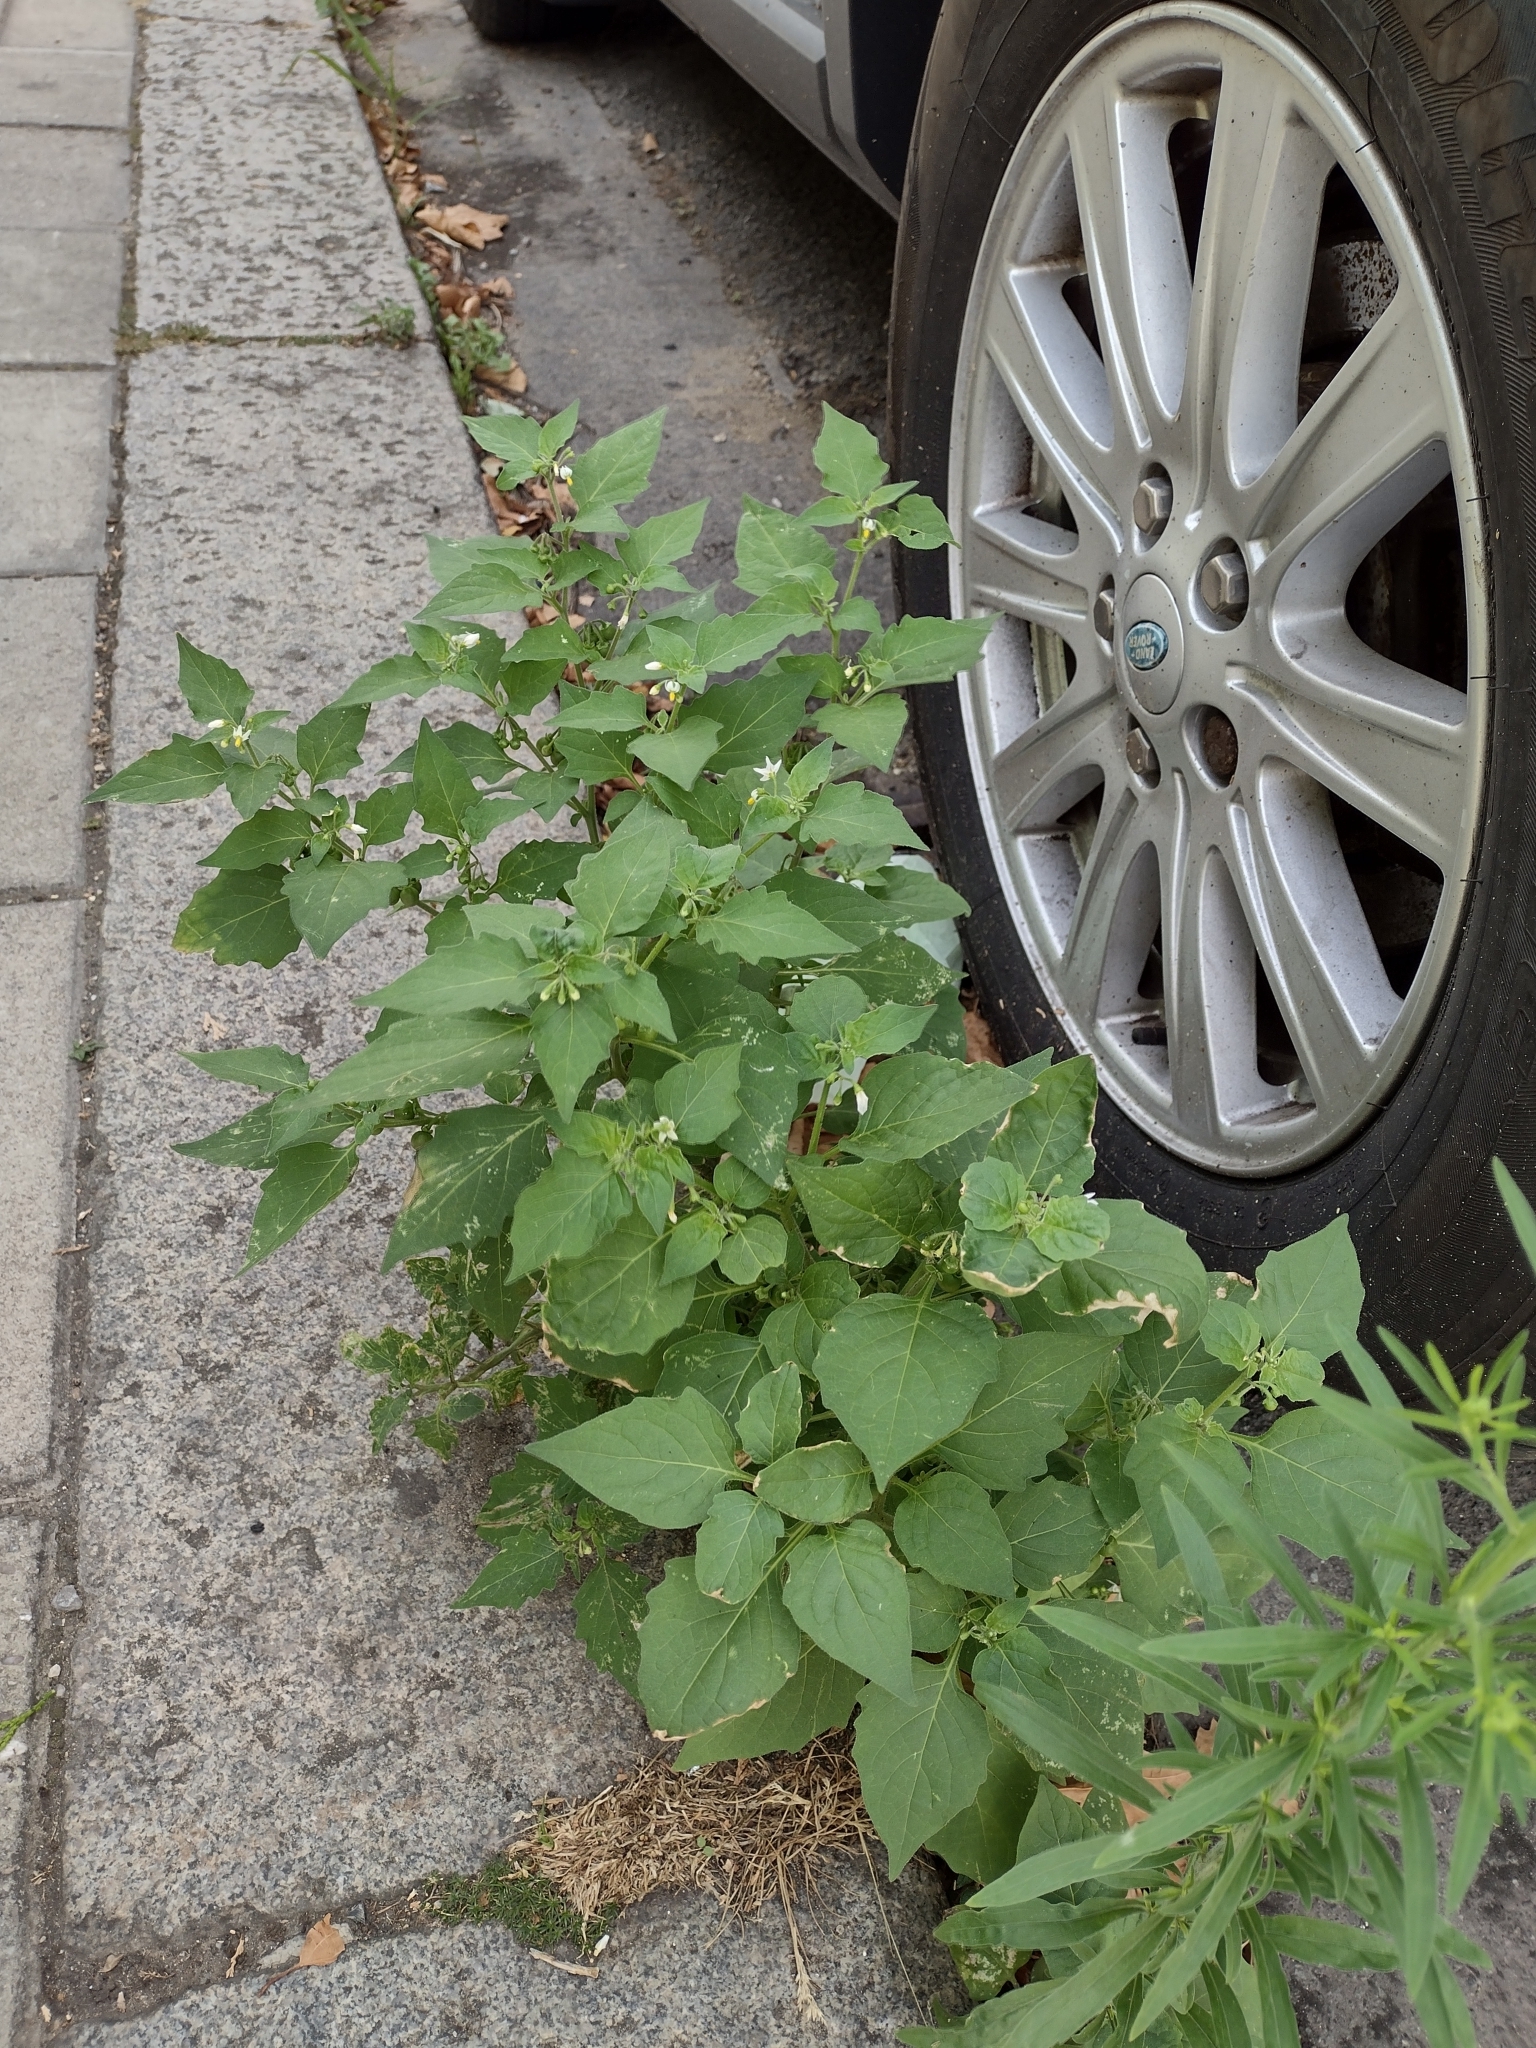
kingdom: Plantae
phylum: Tracheophyta
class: Magnoliopsida
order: Solanales
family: Solanaceae
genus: Solanum
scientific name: Solanum nigrum
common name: Black nightshade
